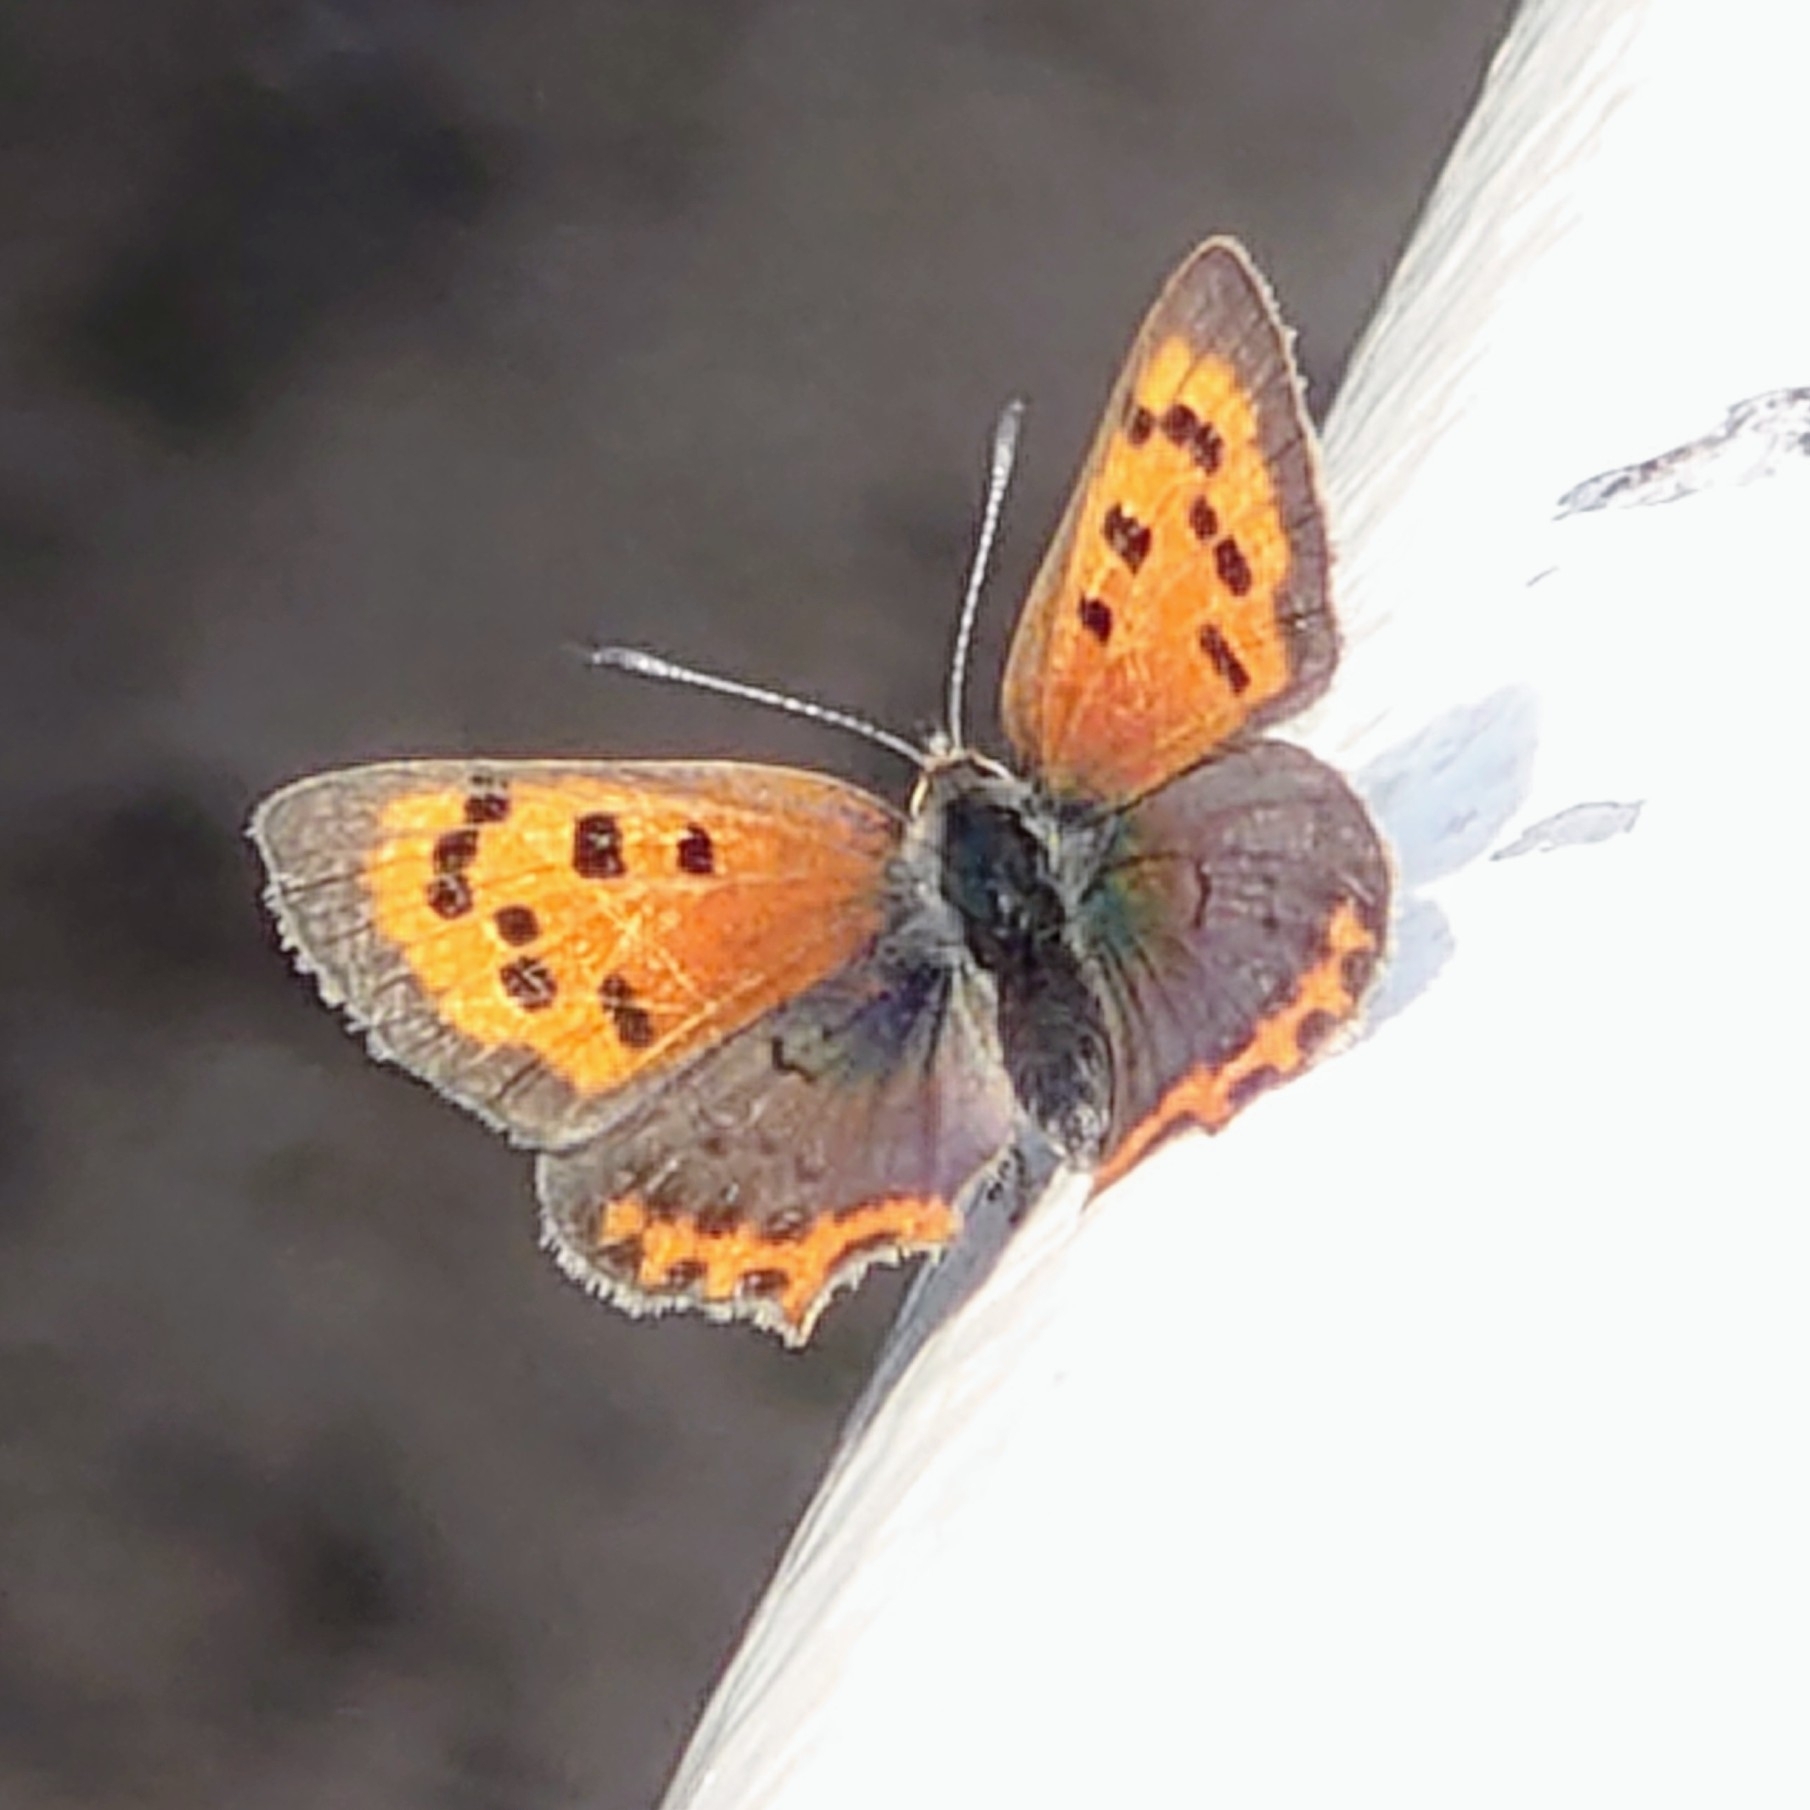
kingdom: Animalia
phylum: Arthropoda
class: Insecta
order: Lepidoptera
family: Lycaenidae
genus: Lycaena
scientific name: Lycaena phlaeas
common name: Small copper
